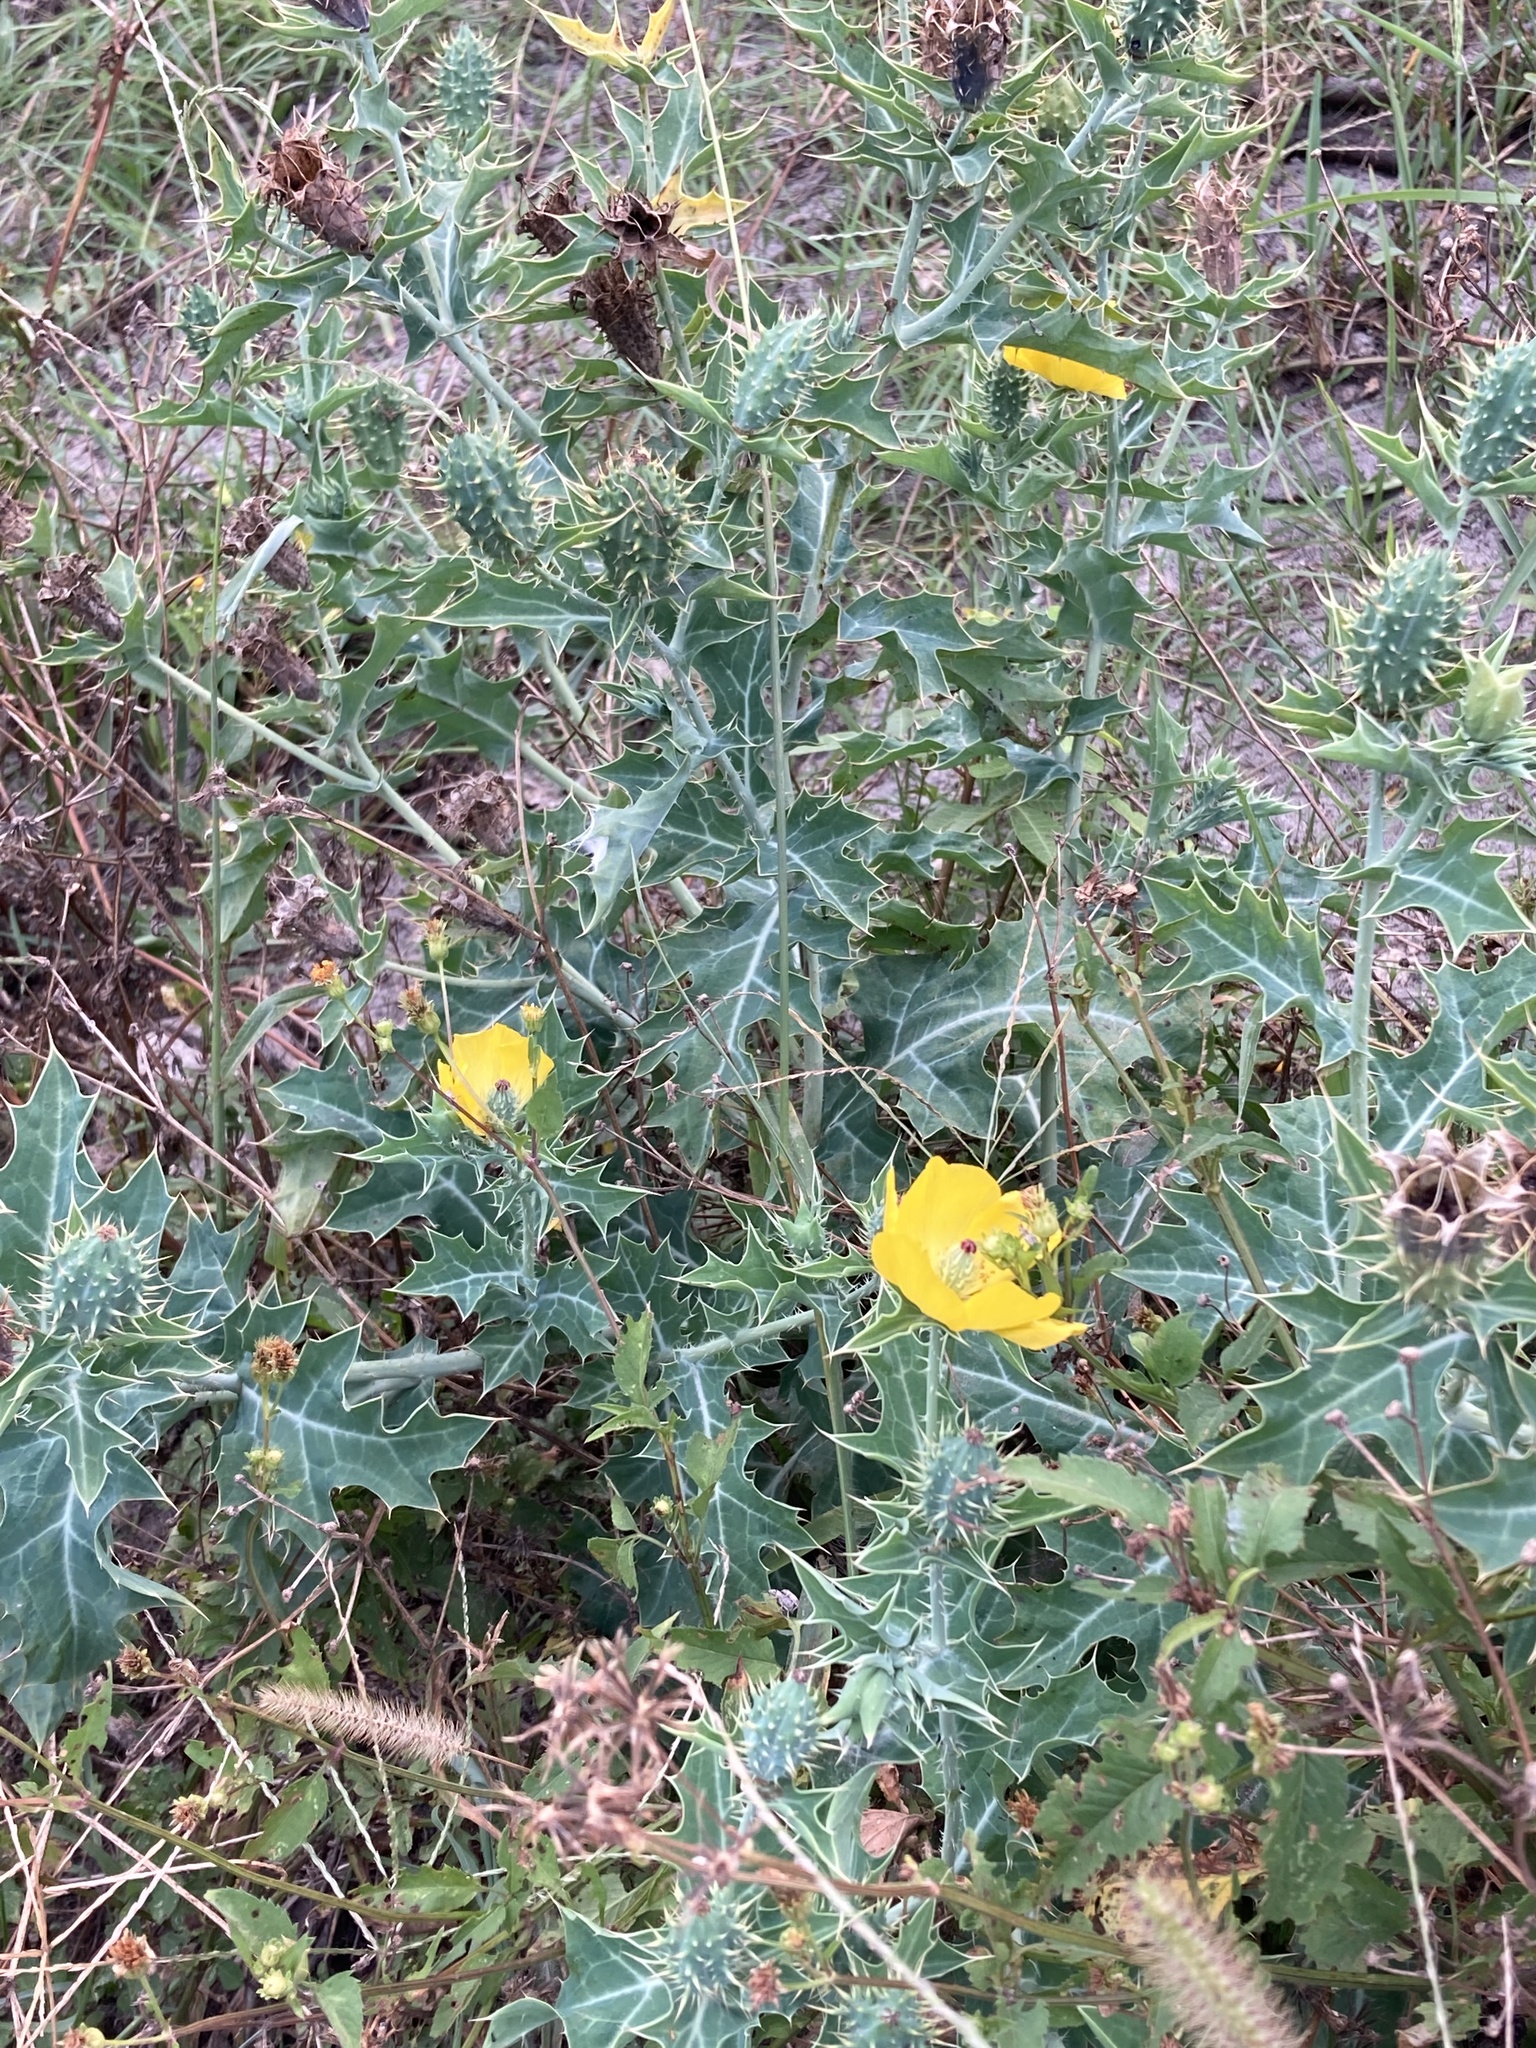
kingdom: Plantae
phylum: Tracheophyta
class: Magnoliopsida
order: Ranunculales
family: Papaveraceae
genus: Argemone
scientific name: Argemone mexicana
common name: Mexican poppy
